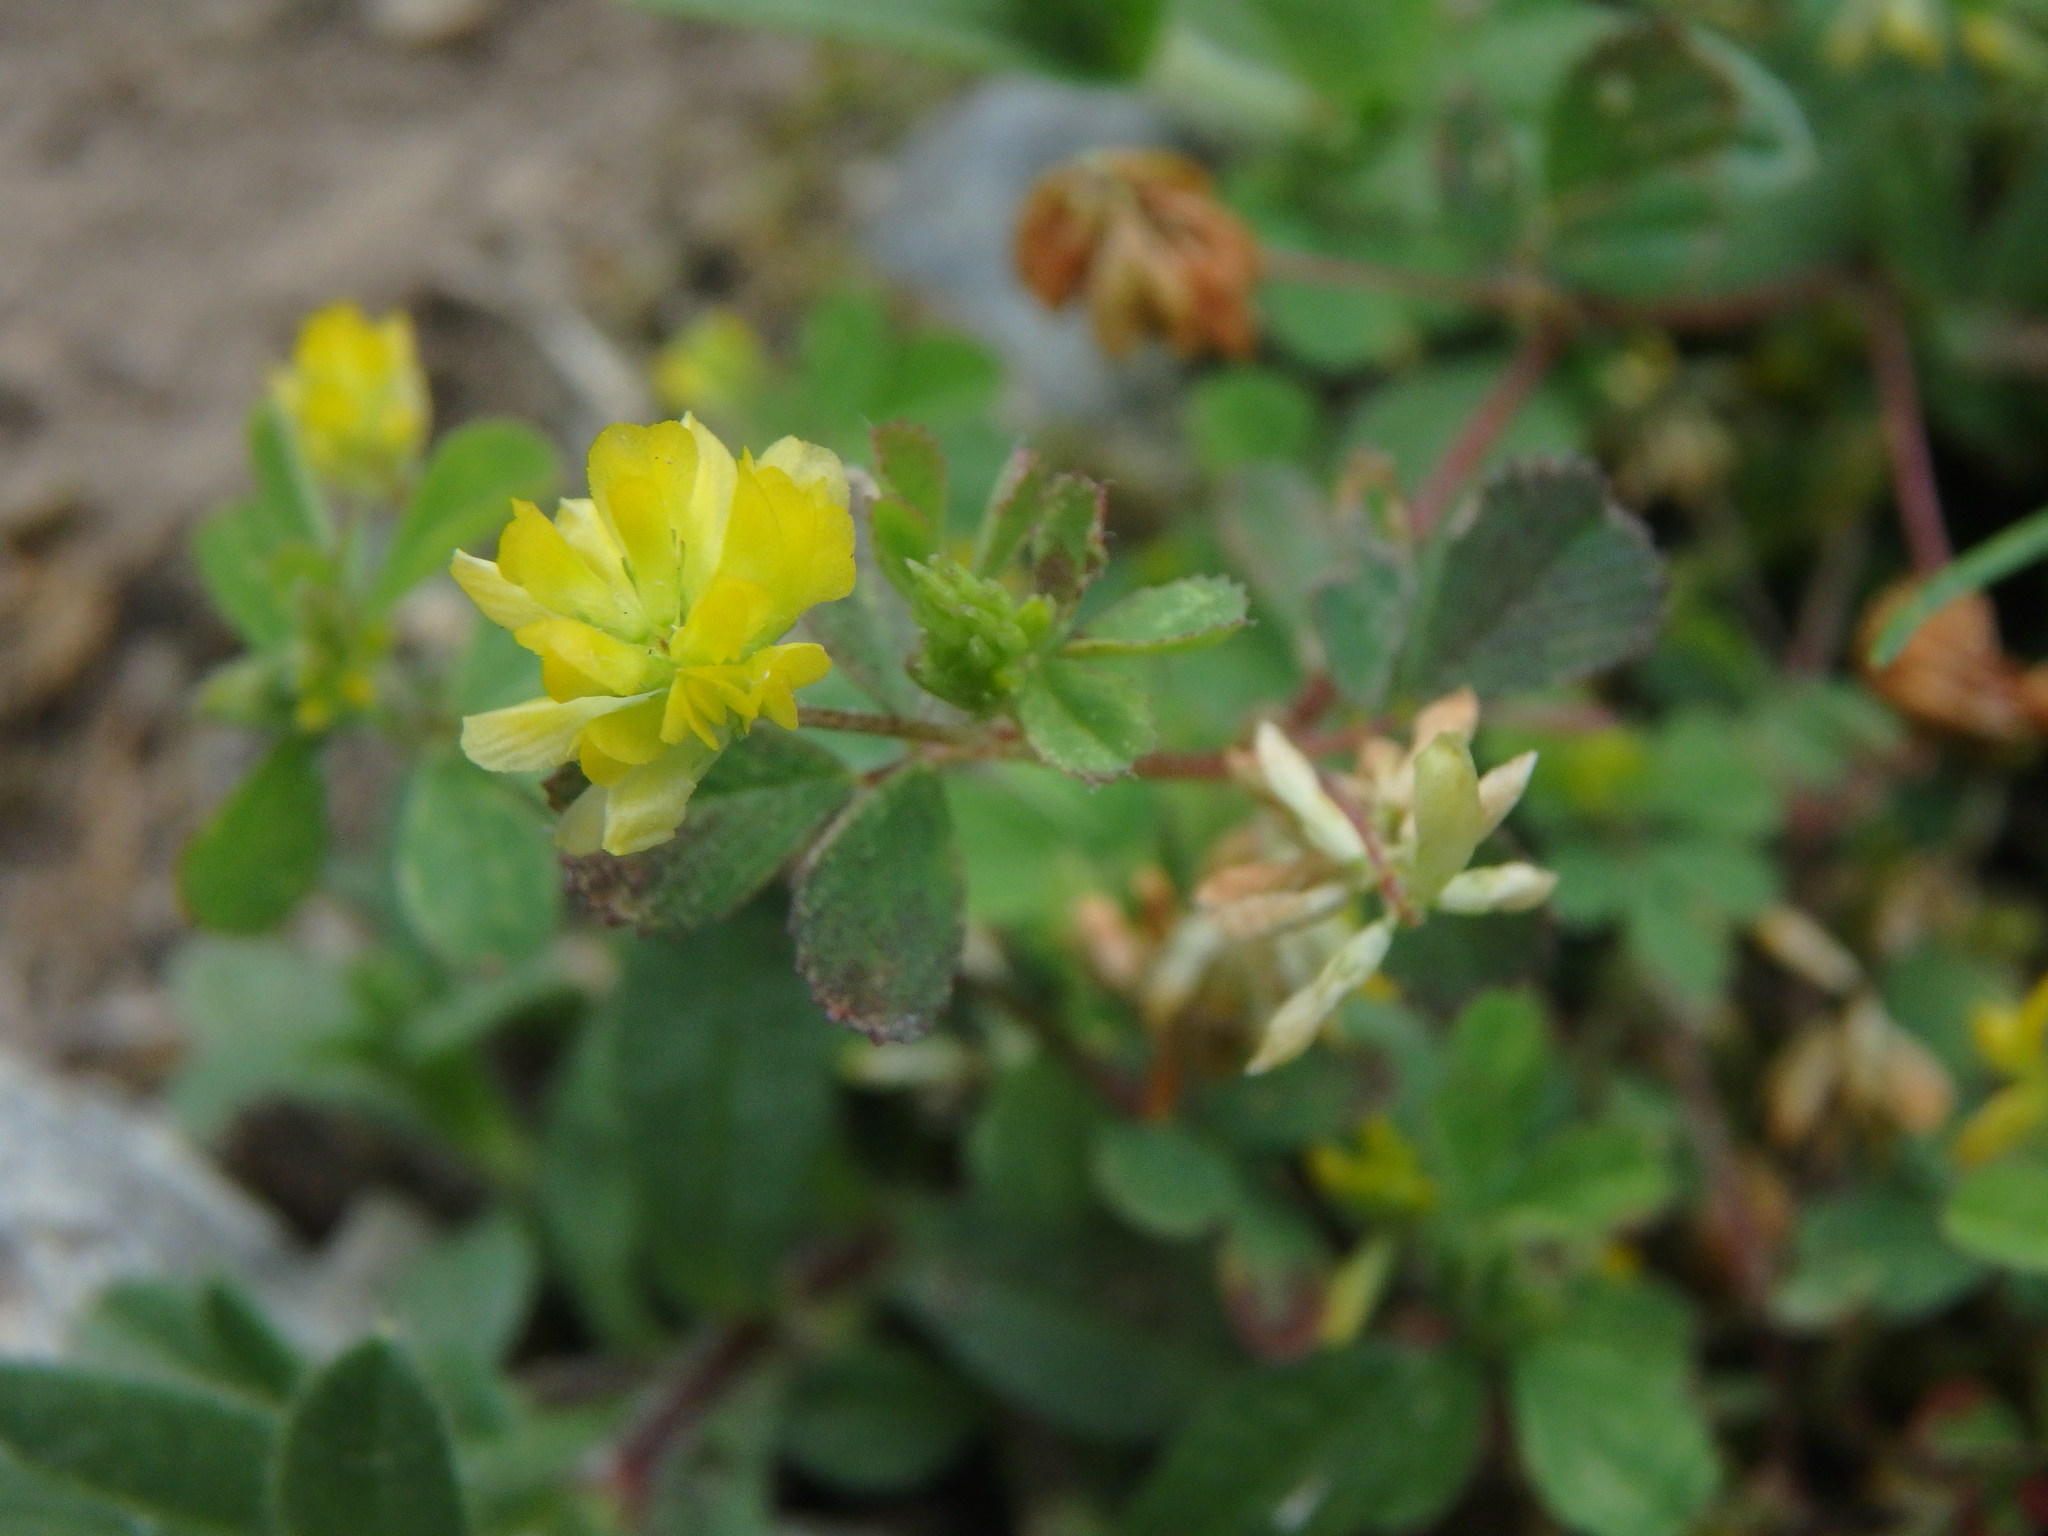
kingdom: Plantae
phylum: Tracheophyta
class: Magnoliopsida
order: Fabales
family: Fabaceae
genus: Trifolium
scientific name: Trifolium dubium
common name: Suckling clover
